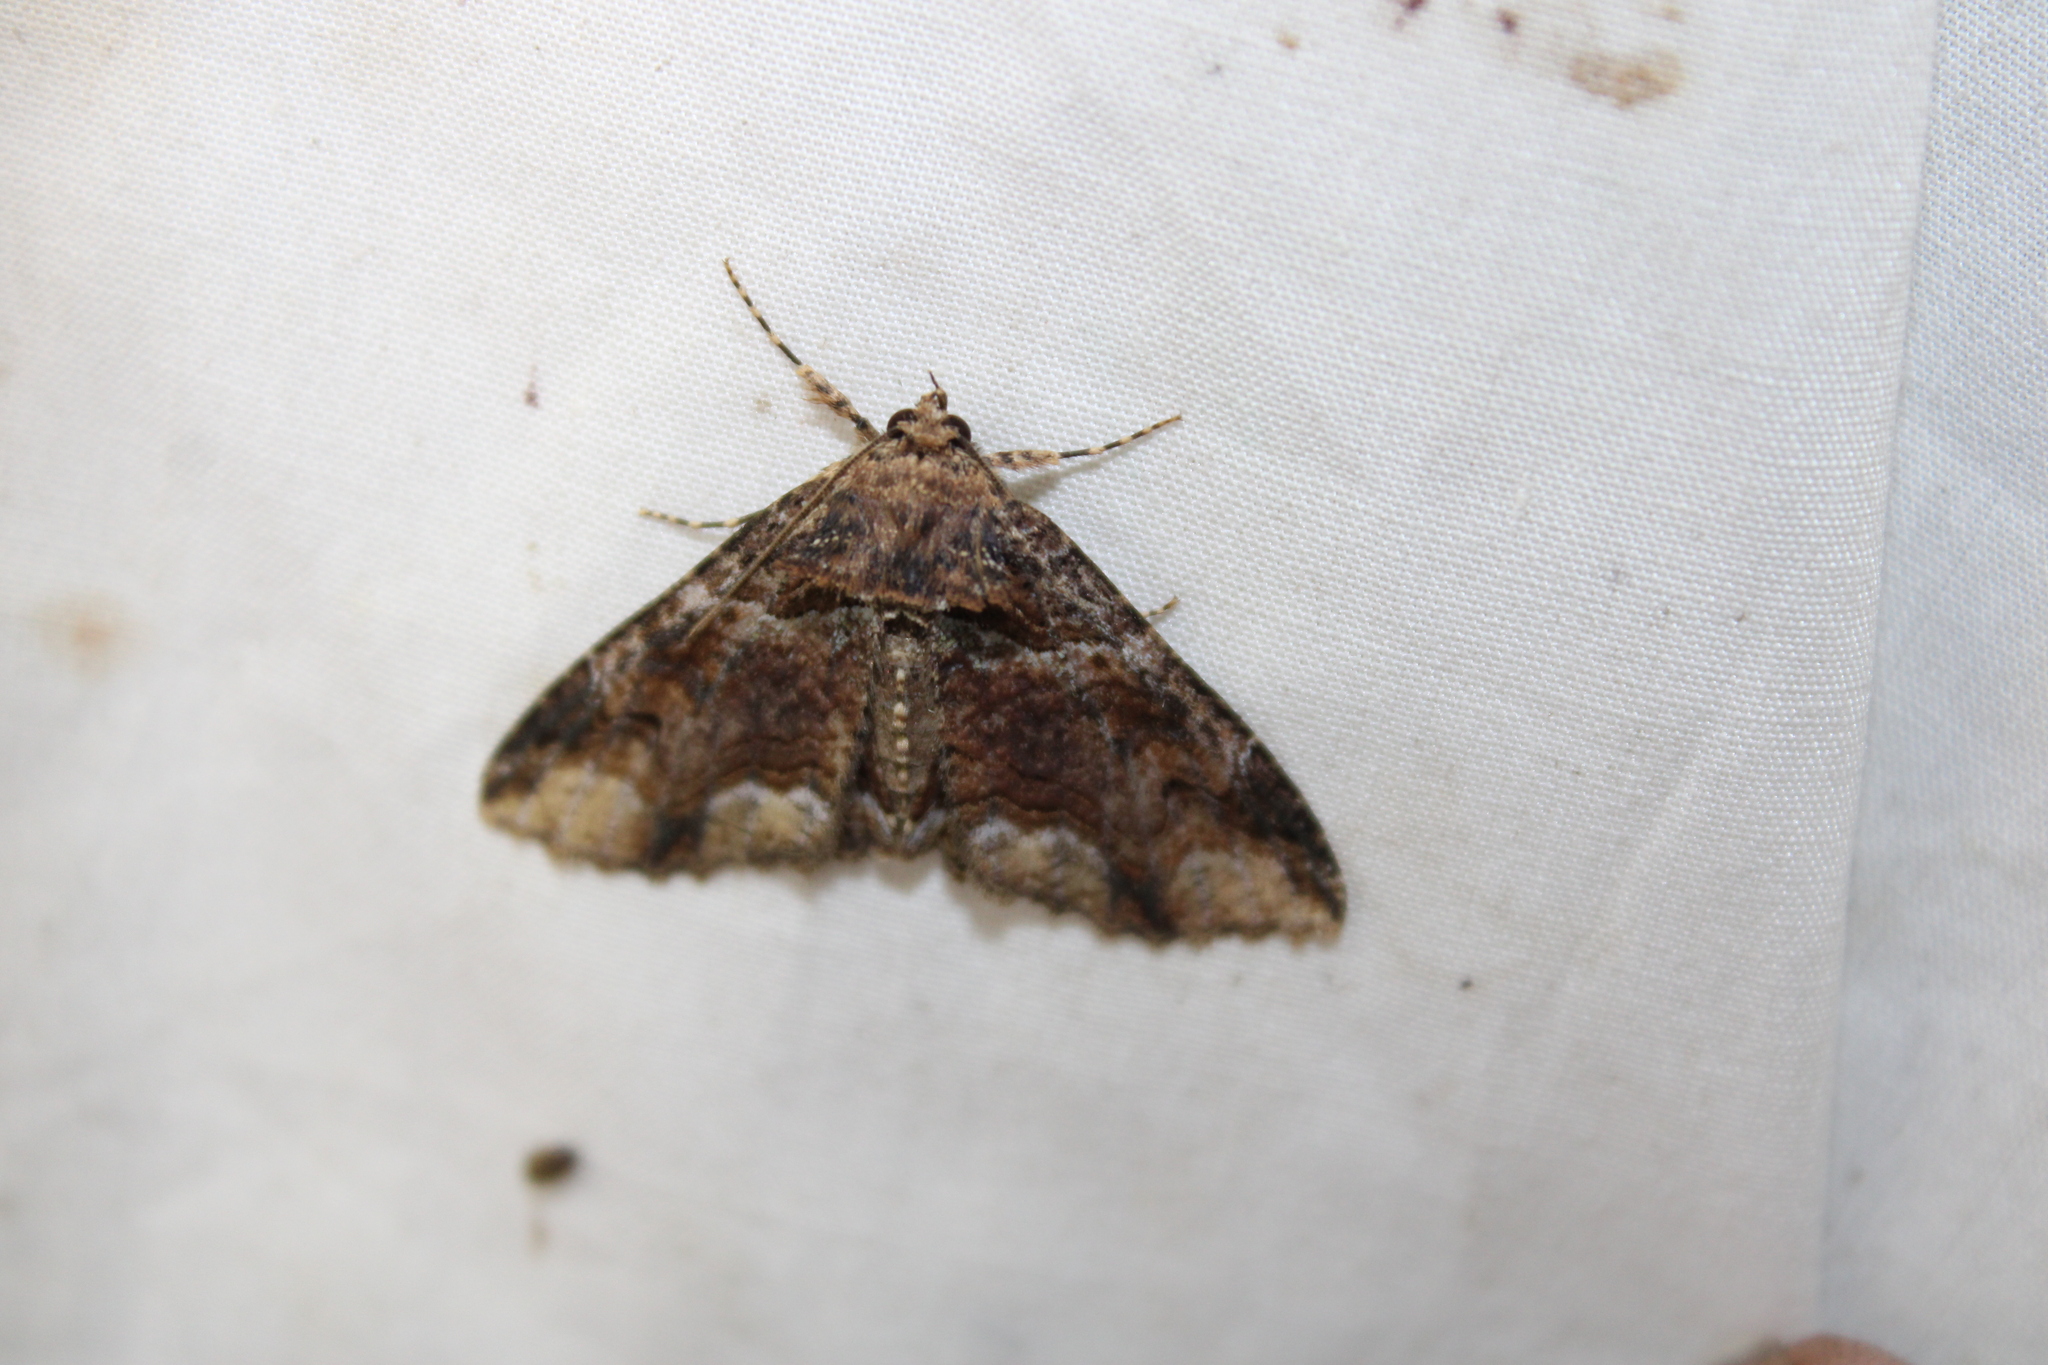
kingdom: Animalia
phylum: Arthropoda
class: Insecta
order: Lepidoptera
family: Erebidae
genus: Zale
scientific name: Zale minerea
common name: Colorful zale moth
